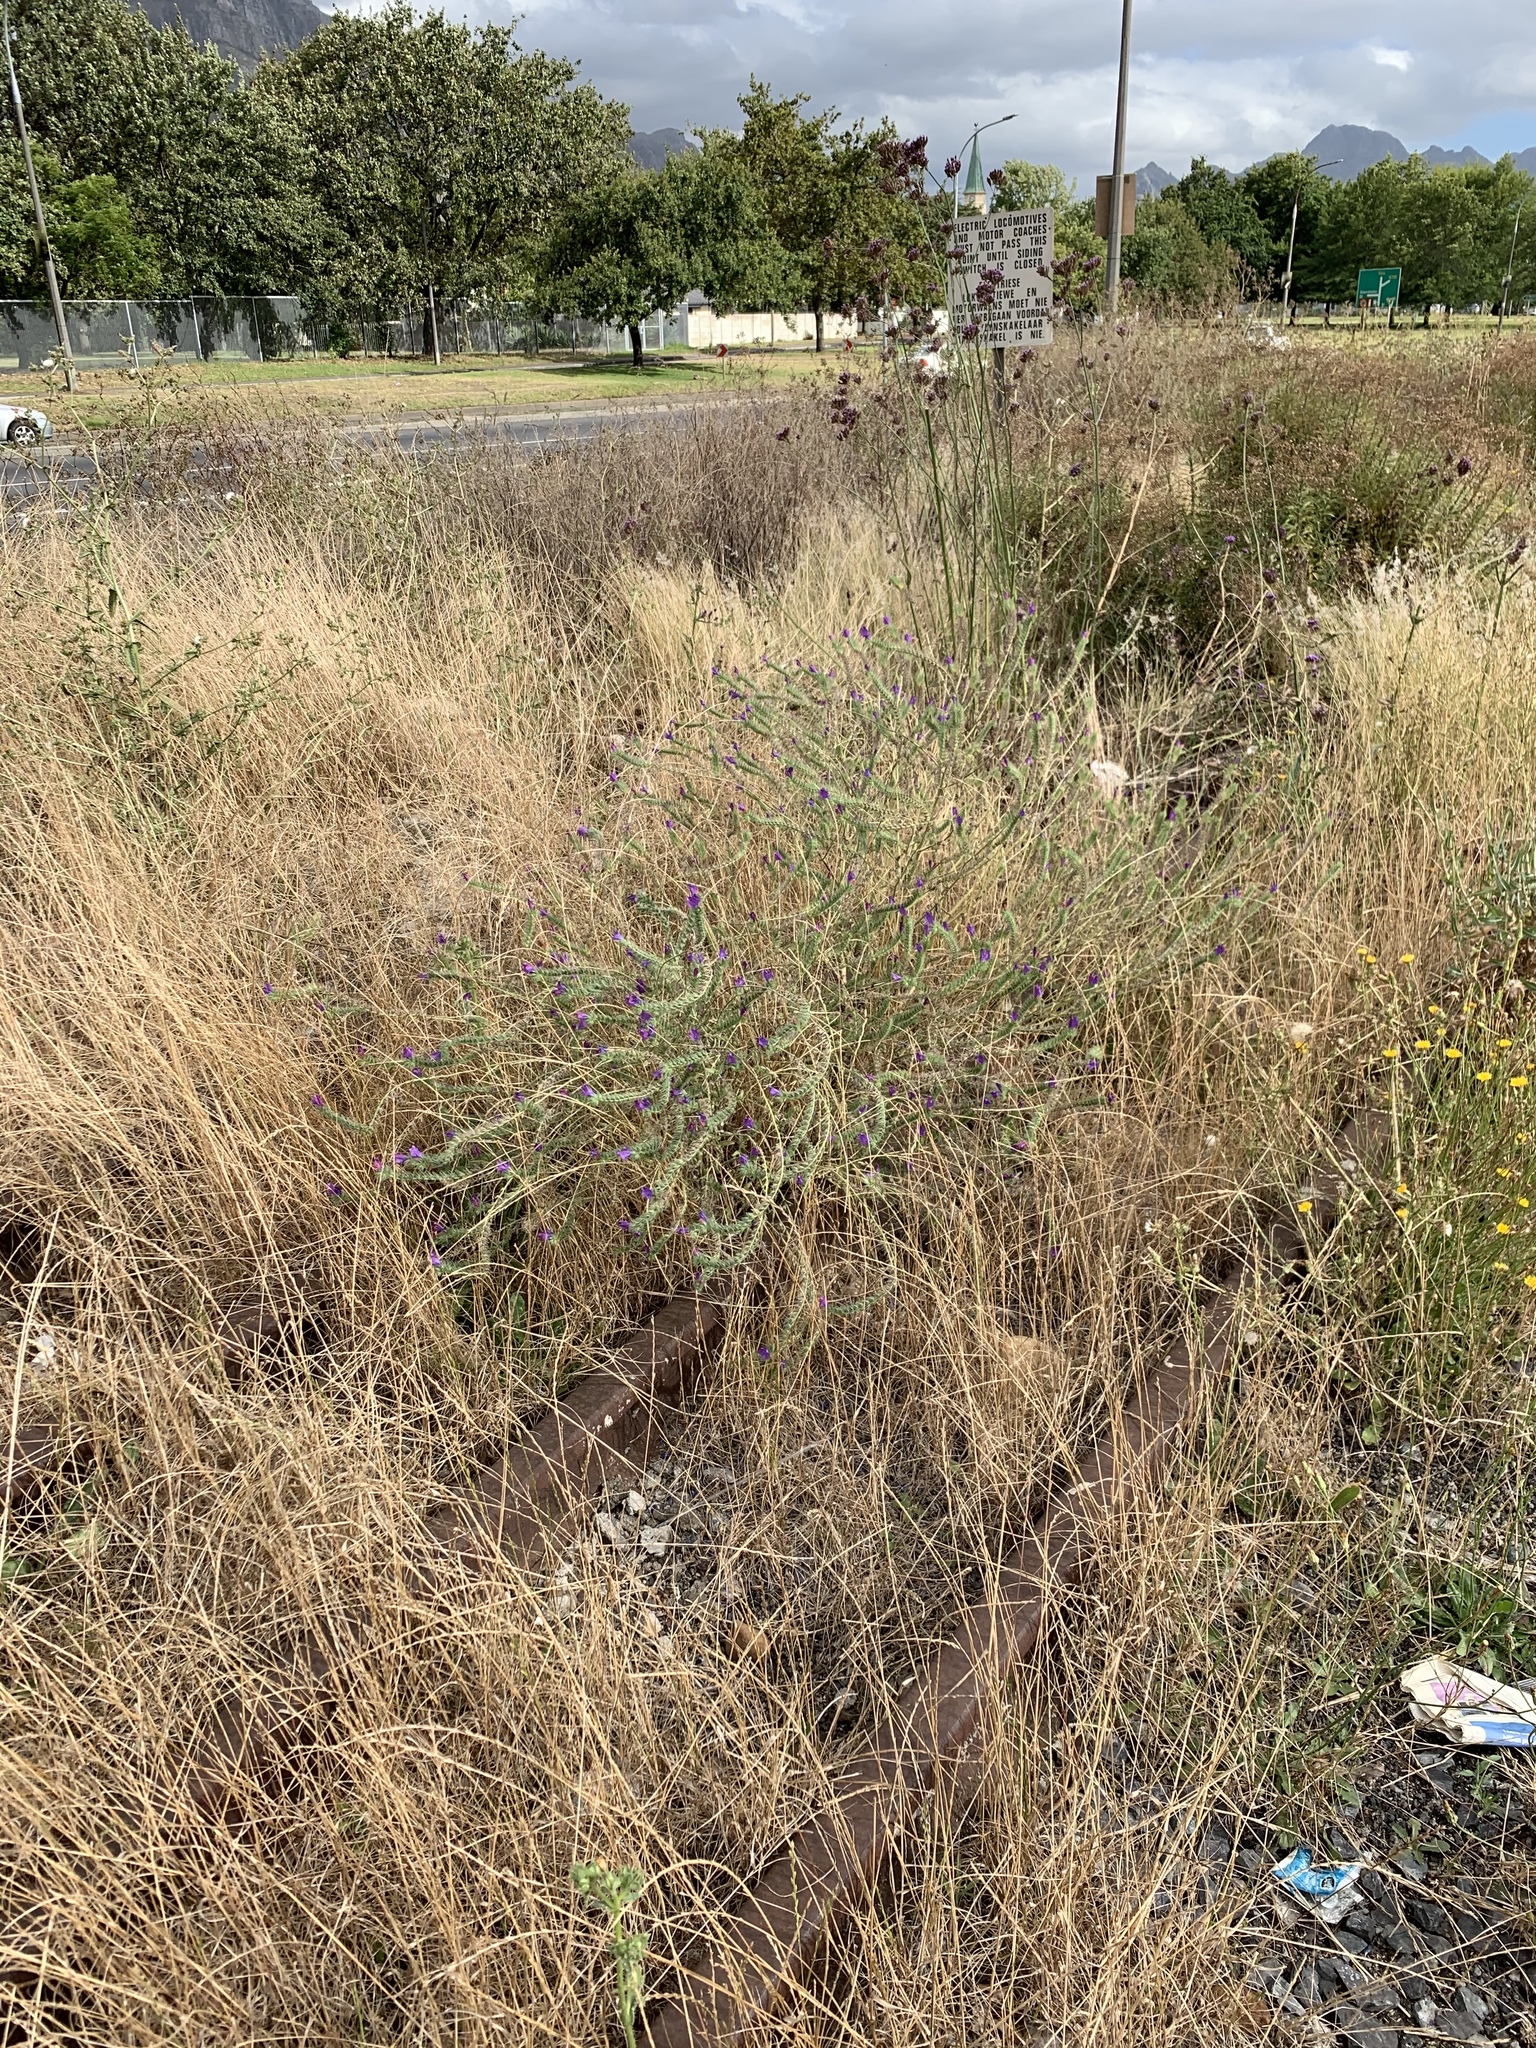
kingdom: Plantae
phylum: Tracheophyta
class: Magnoliopsida
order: Boraginales
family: Boraginaceae
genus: Echium
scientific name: Echium plantagineum
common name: Purple viper's-bugloss
